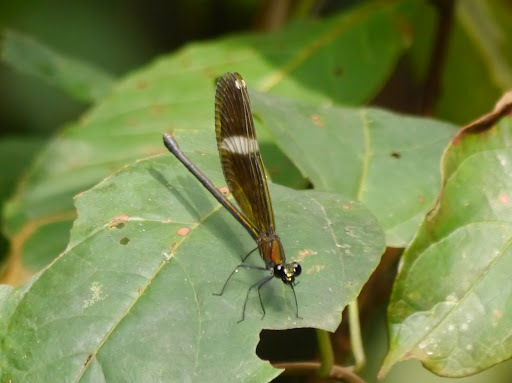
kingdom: Animalia
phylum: Arthropoda
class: Insecta
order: Odonata
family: Calopterygidae
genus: Sapho
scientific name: Sapho gloriosa
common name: Glorious bluewing
